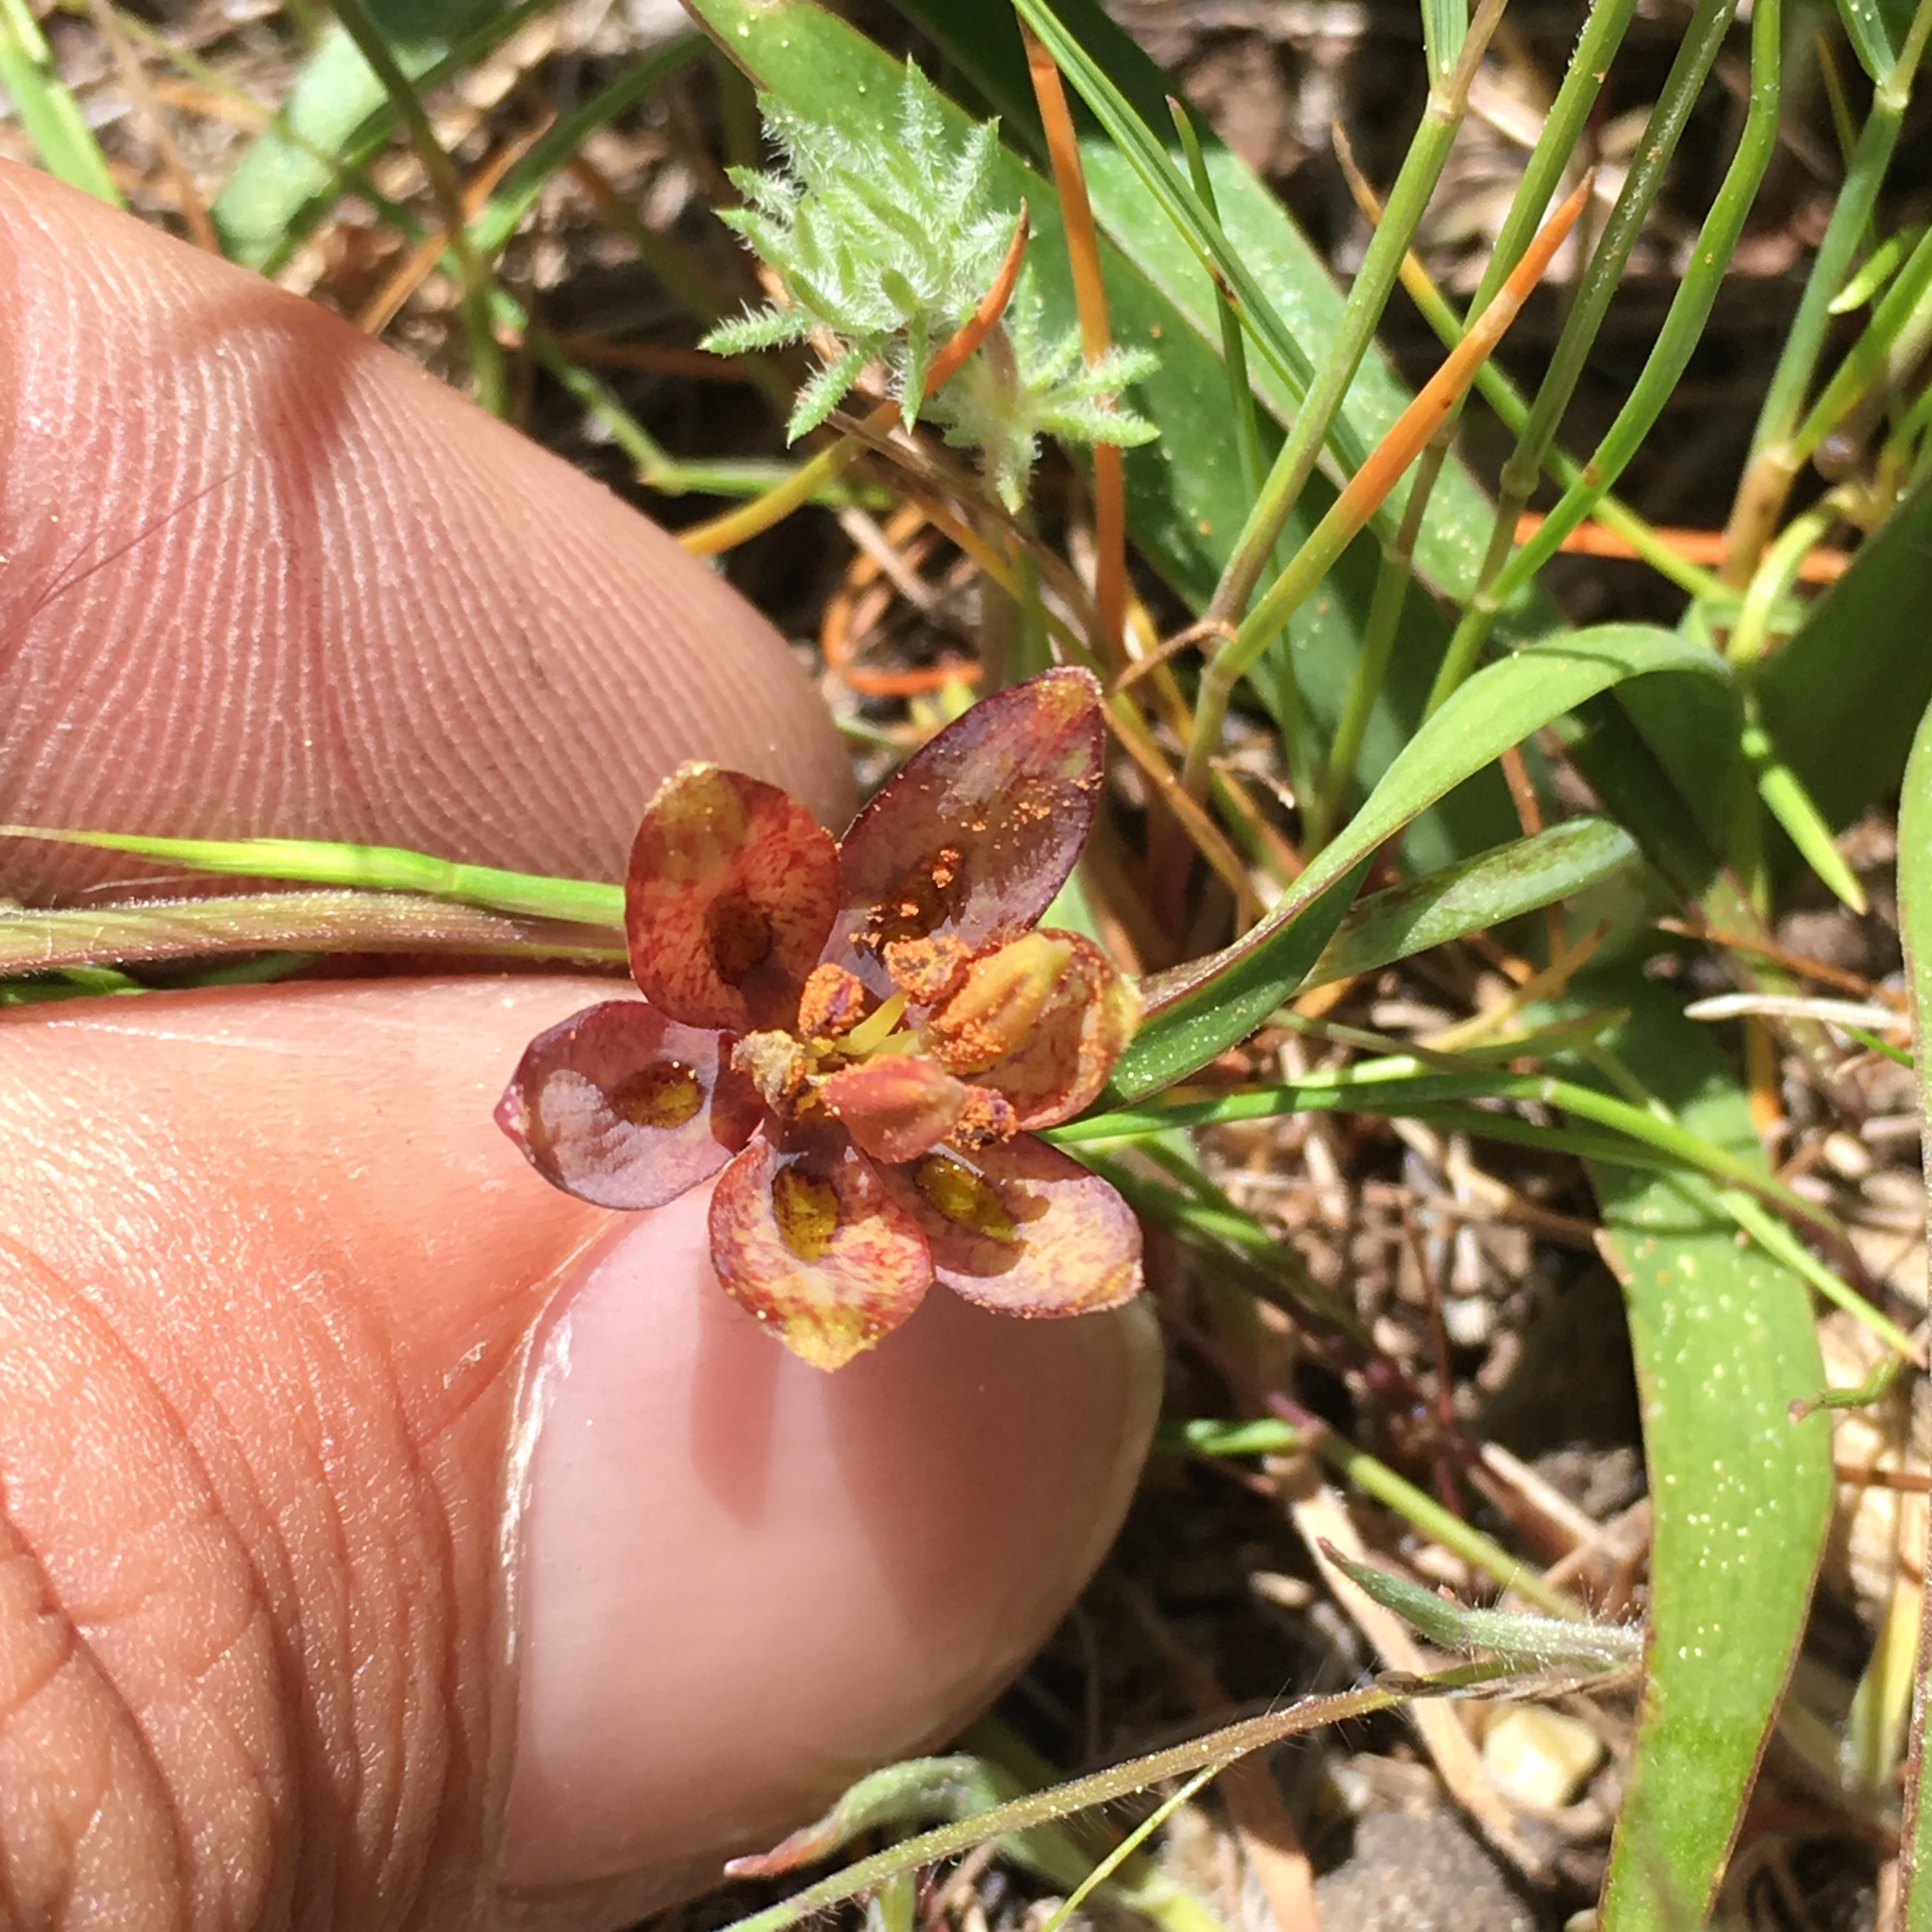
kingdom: Plantae
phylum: Tracheophyta
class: Liliopsida
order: Liliales
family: Liliaceae
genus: Fritillaria
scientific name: Fritillaria micrantha
